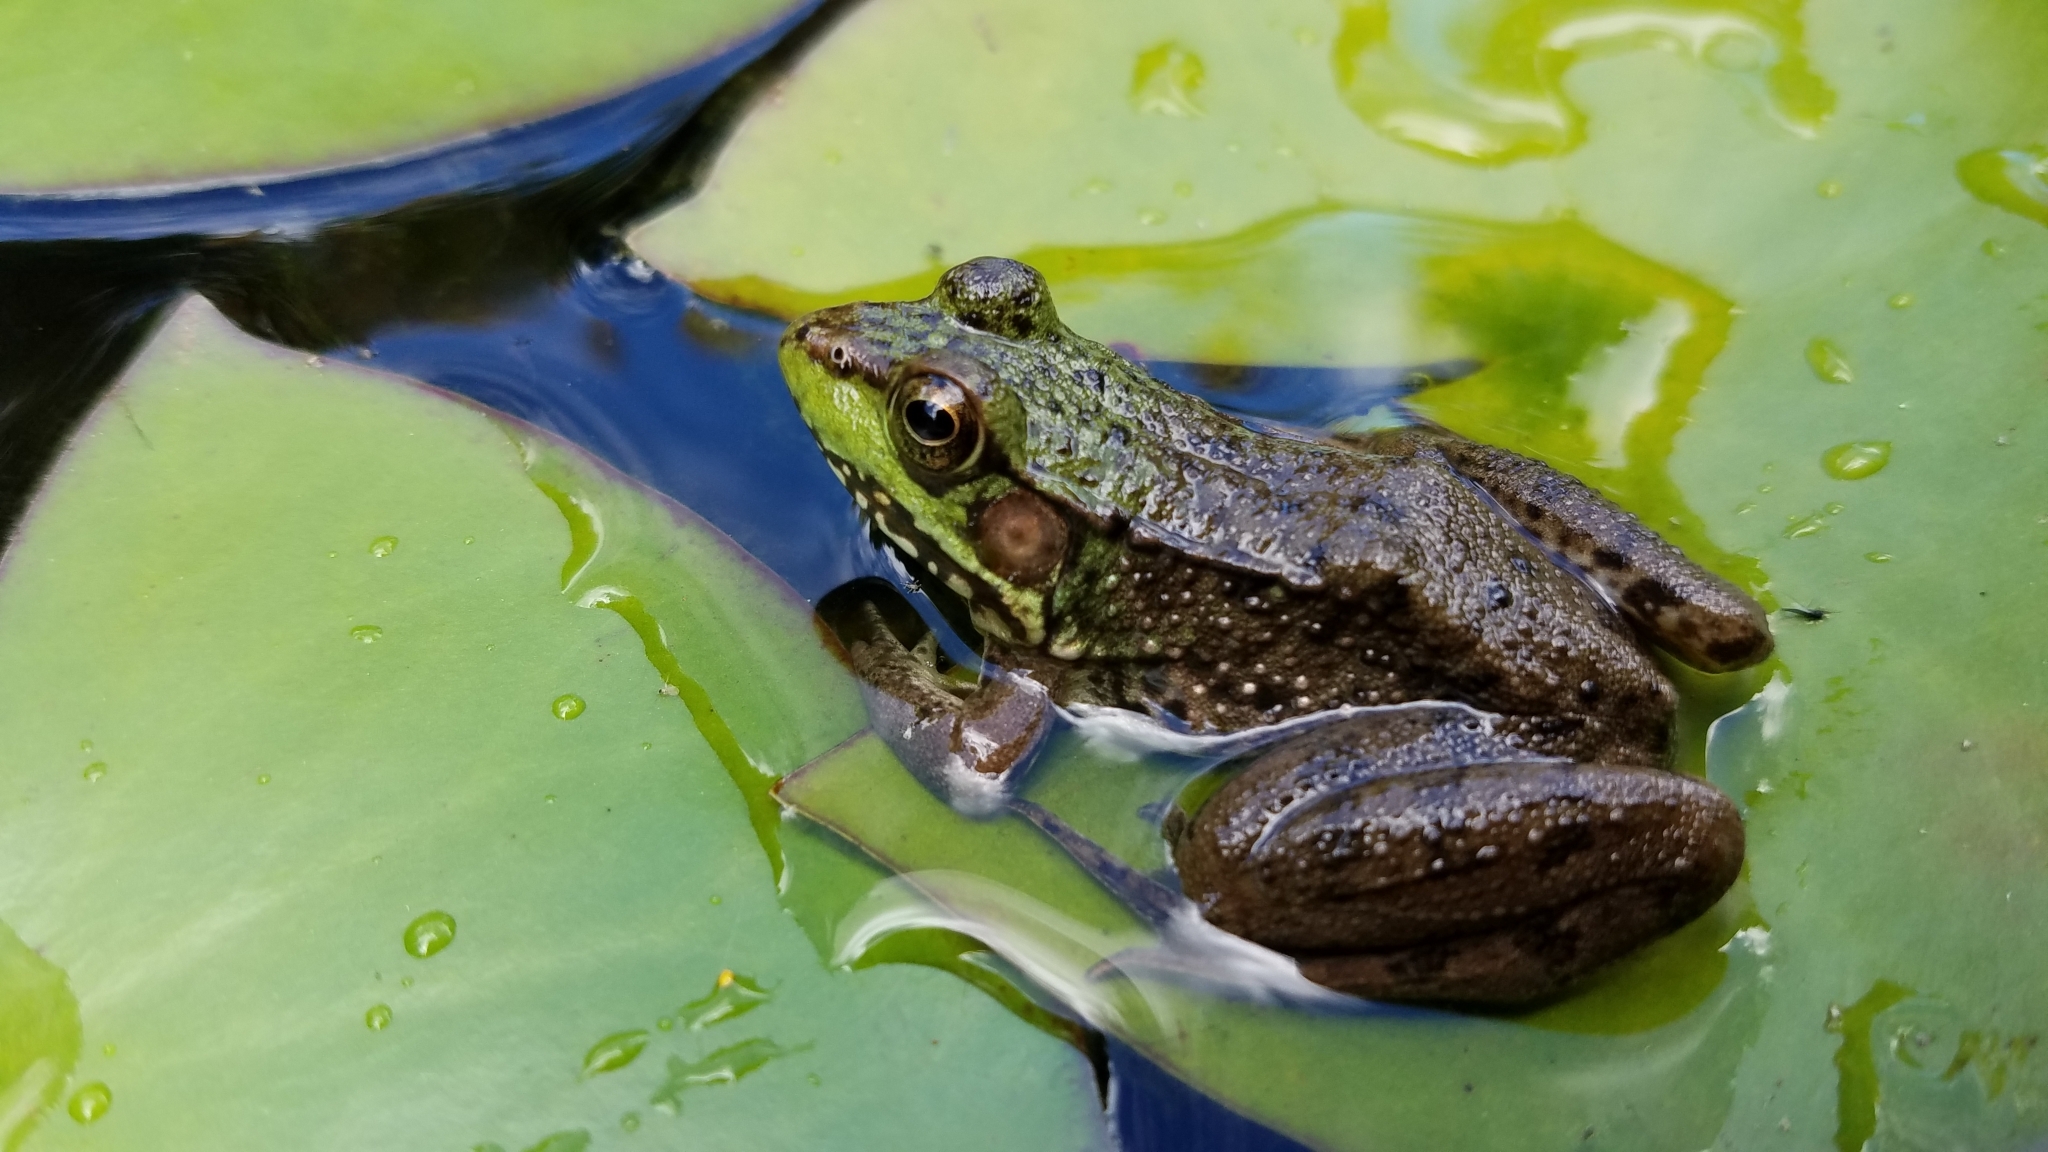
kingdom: Animalia
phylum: Chordata
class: Amphibia
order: Anura
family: Ranidae
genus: Lithobates
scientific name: Lithobates clamitans
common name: Green frog
